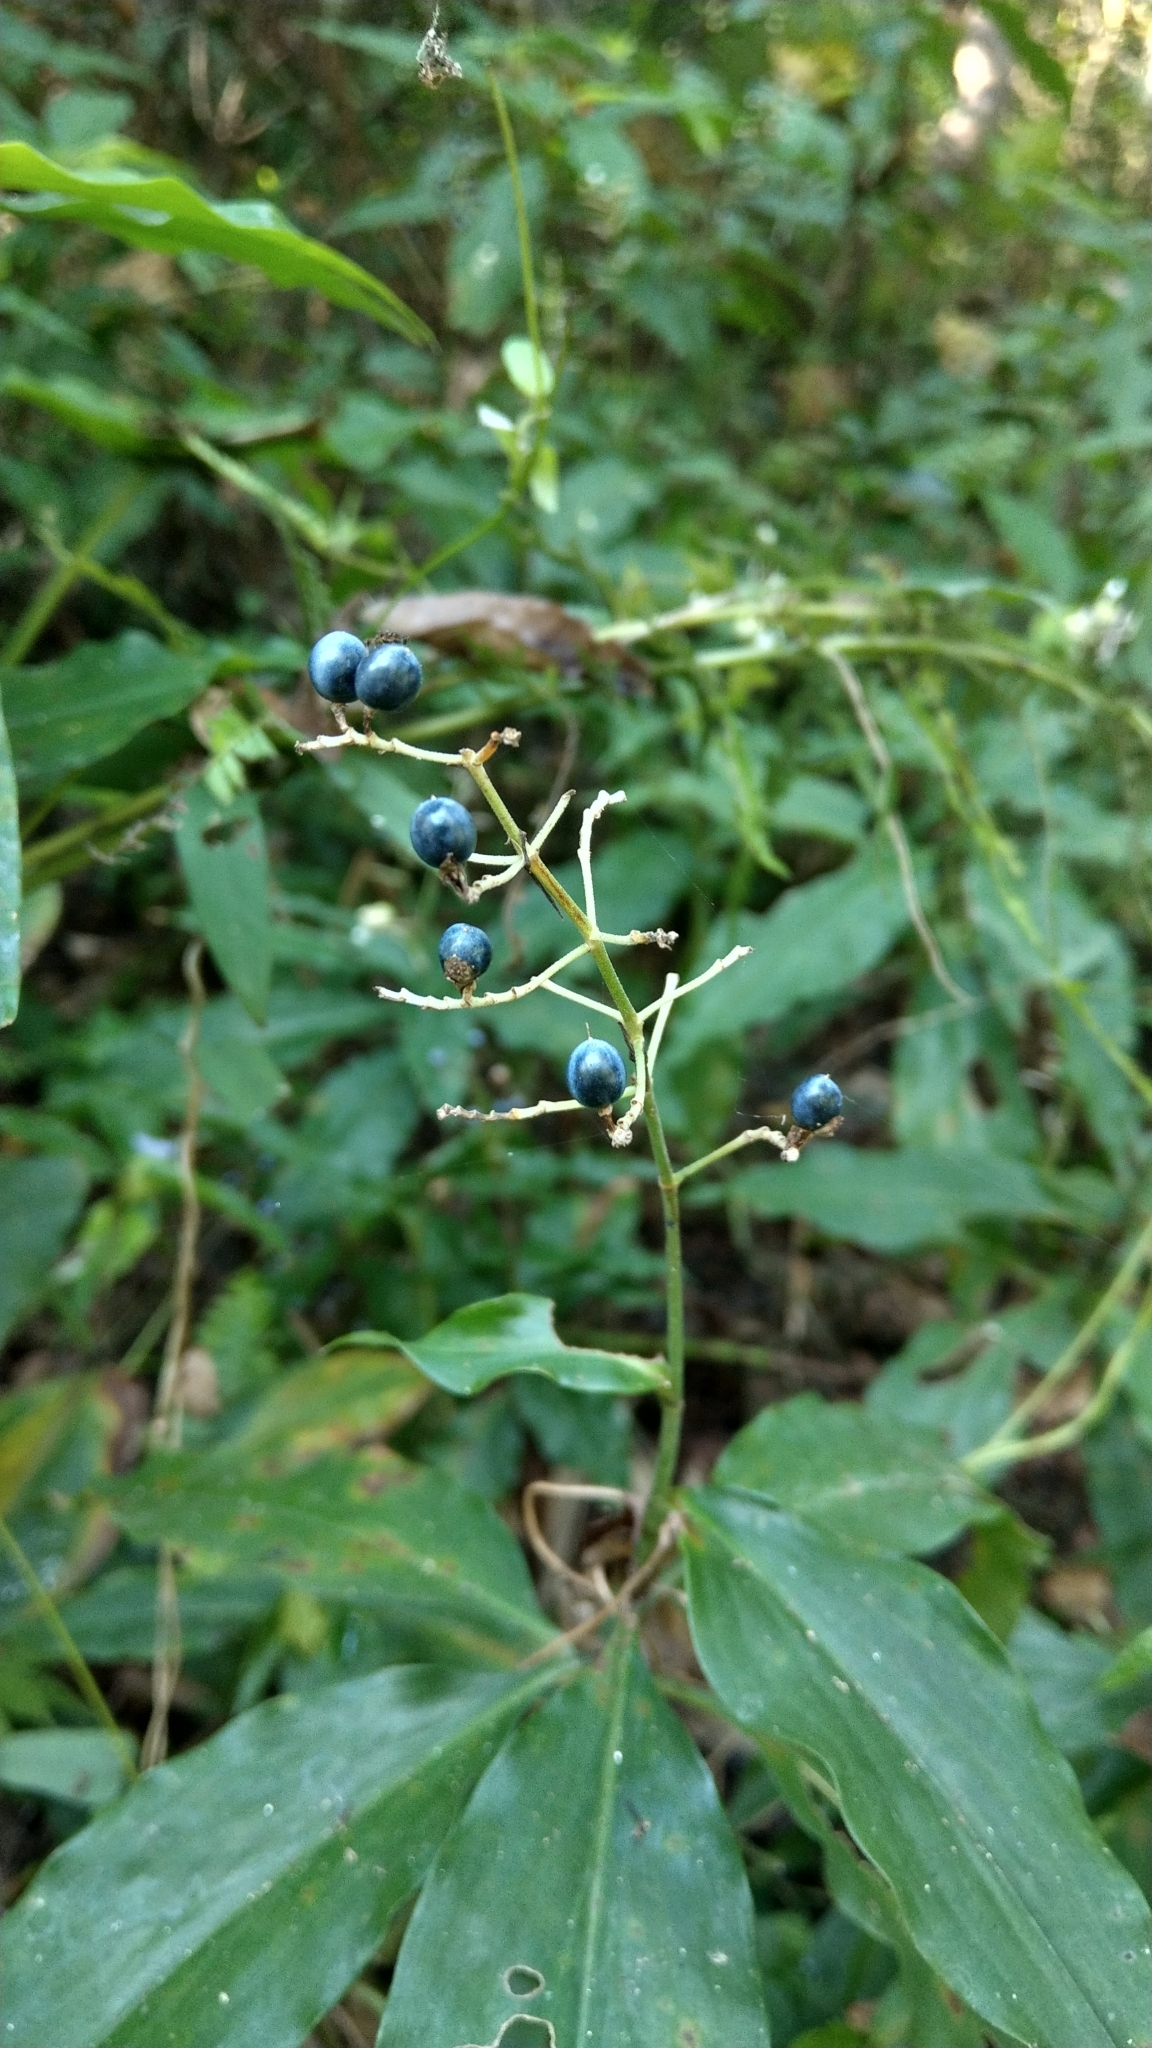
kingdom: Plantae
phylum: Tracheophyta
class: Liliopsida
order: Commelinales
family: Commelinaceae
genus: Pollia
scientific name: Pollia japonica
